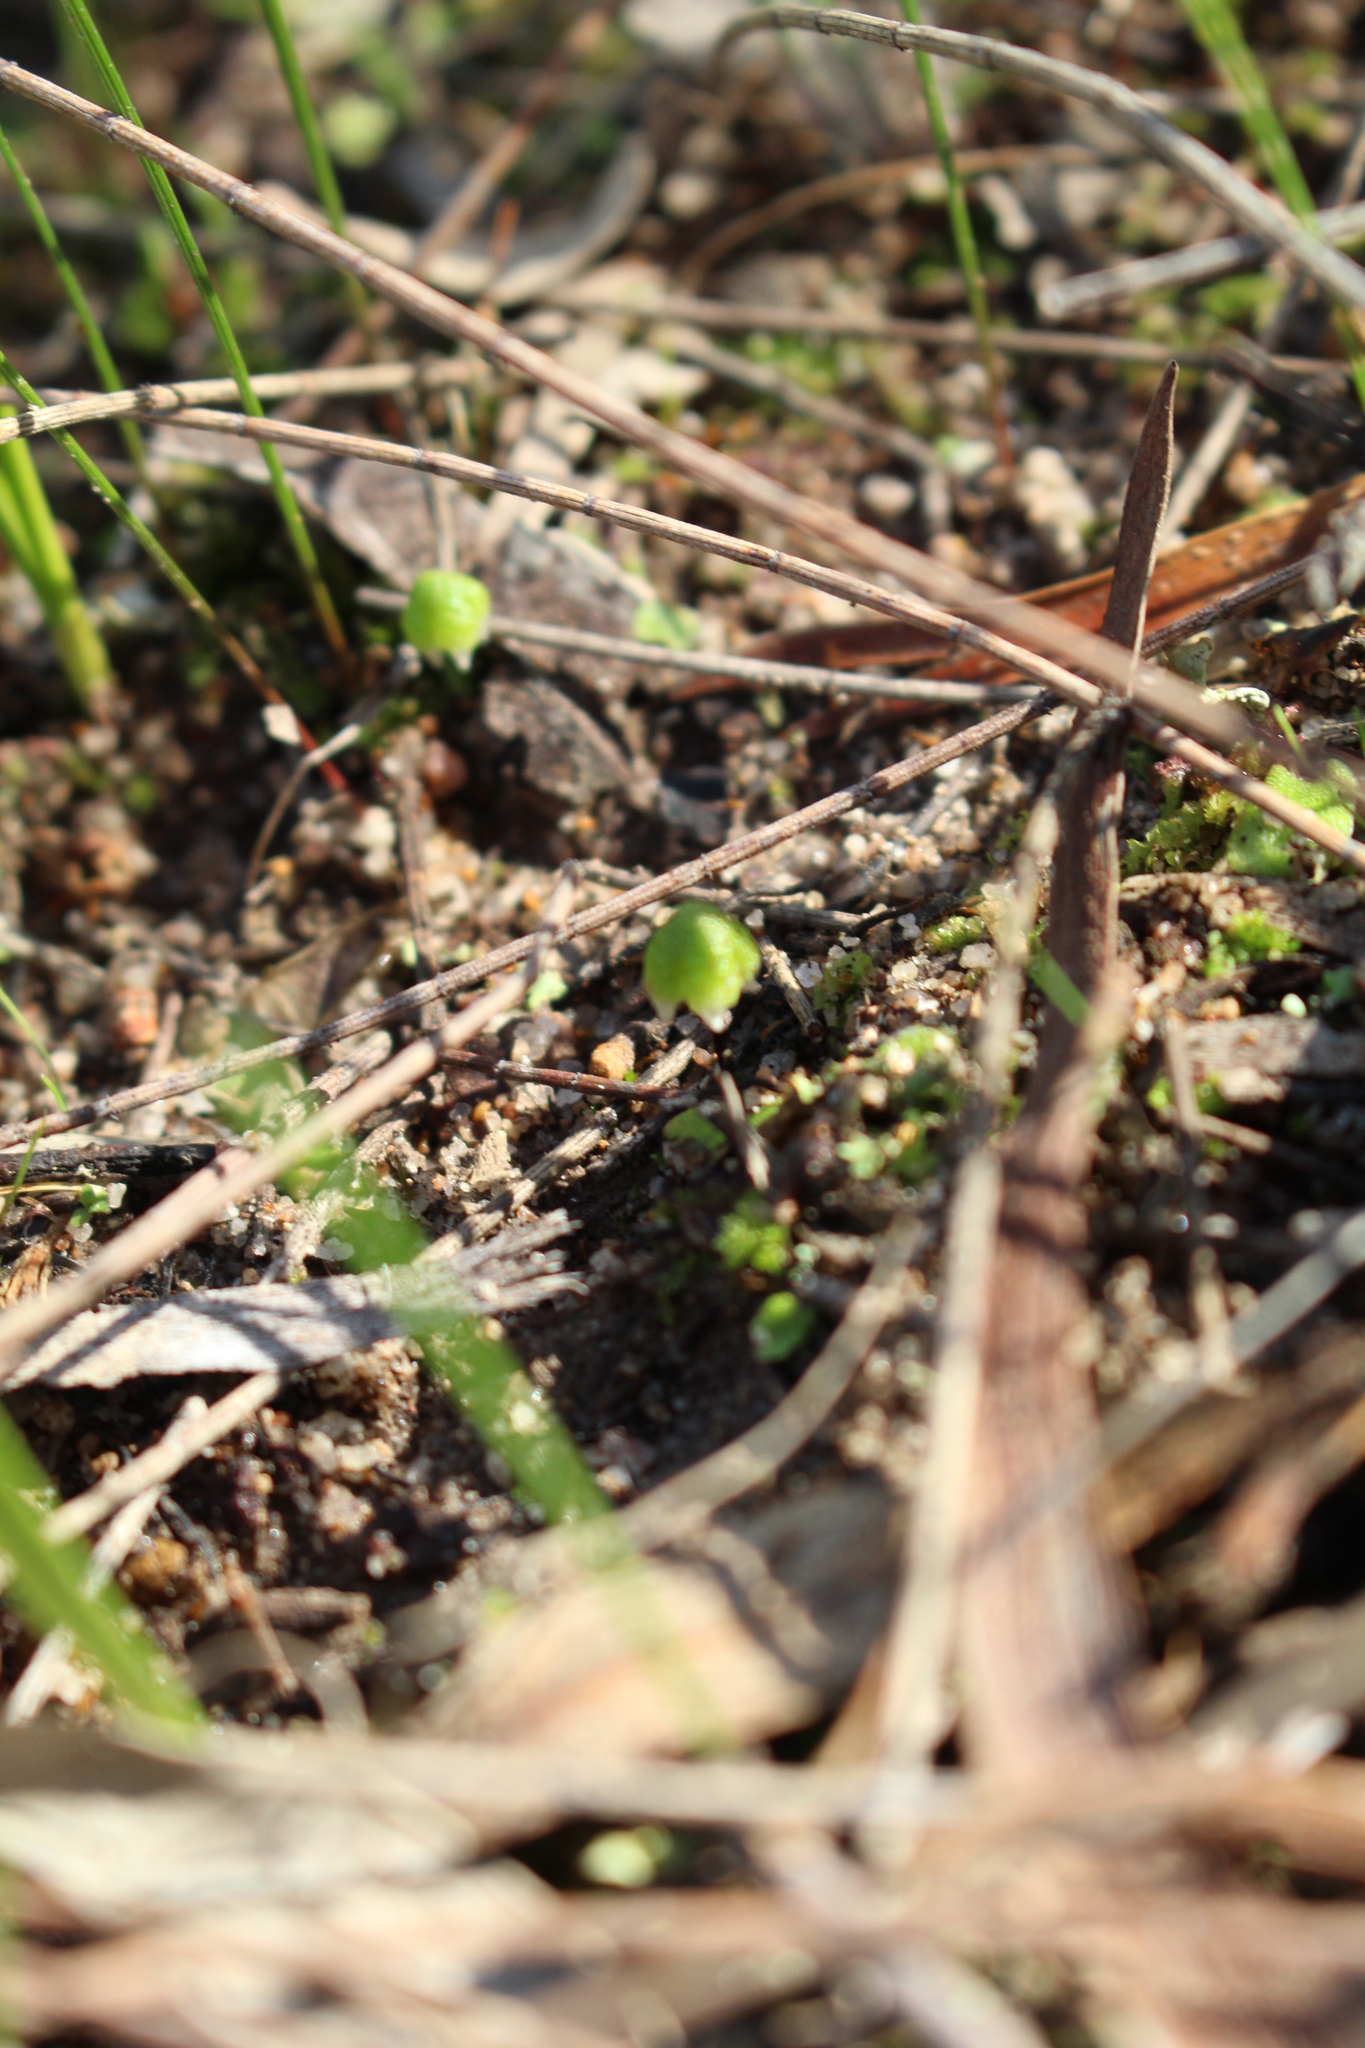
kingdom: Plantae
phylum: Marchantiophyta
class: Marchantiopsida
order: Marchantiales
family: Aytoniaceae
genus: Asterella
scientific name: Asterella drummondii
